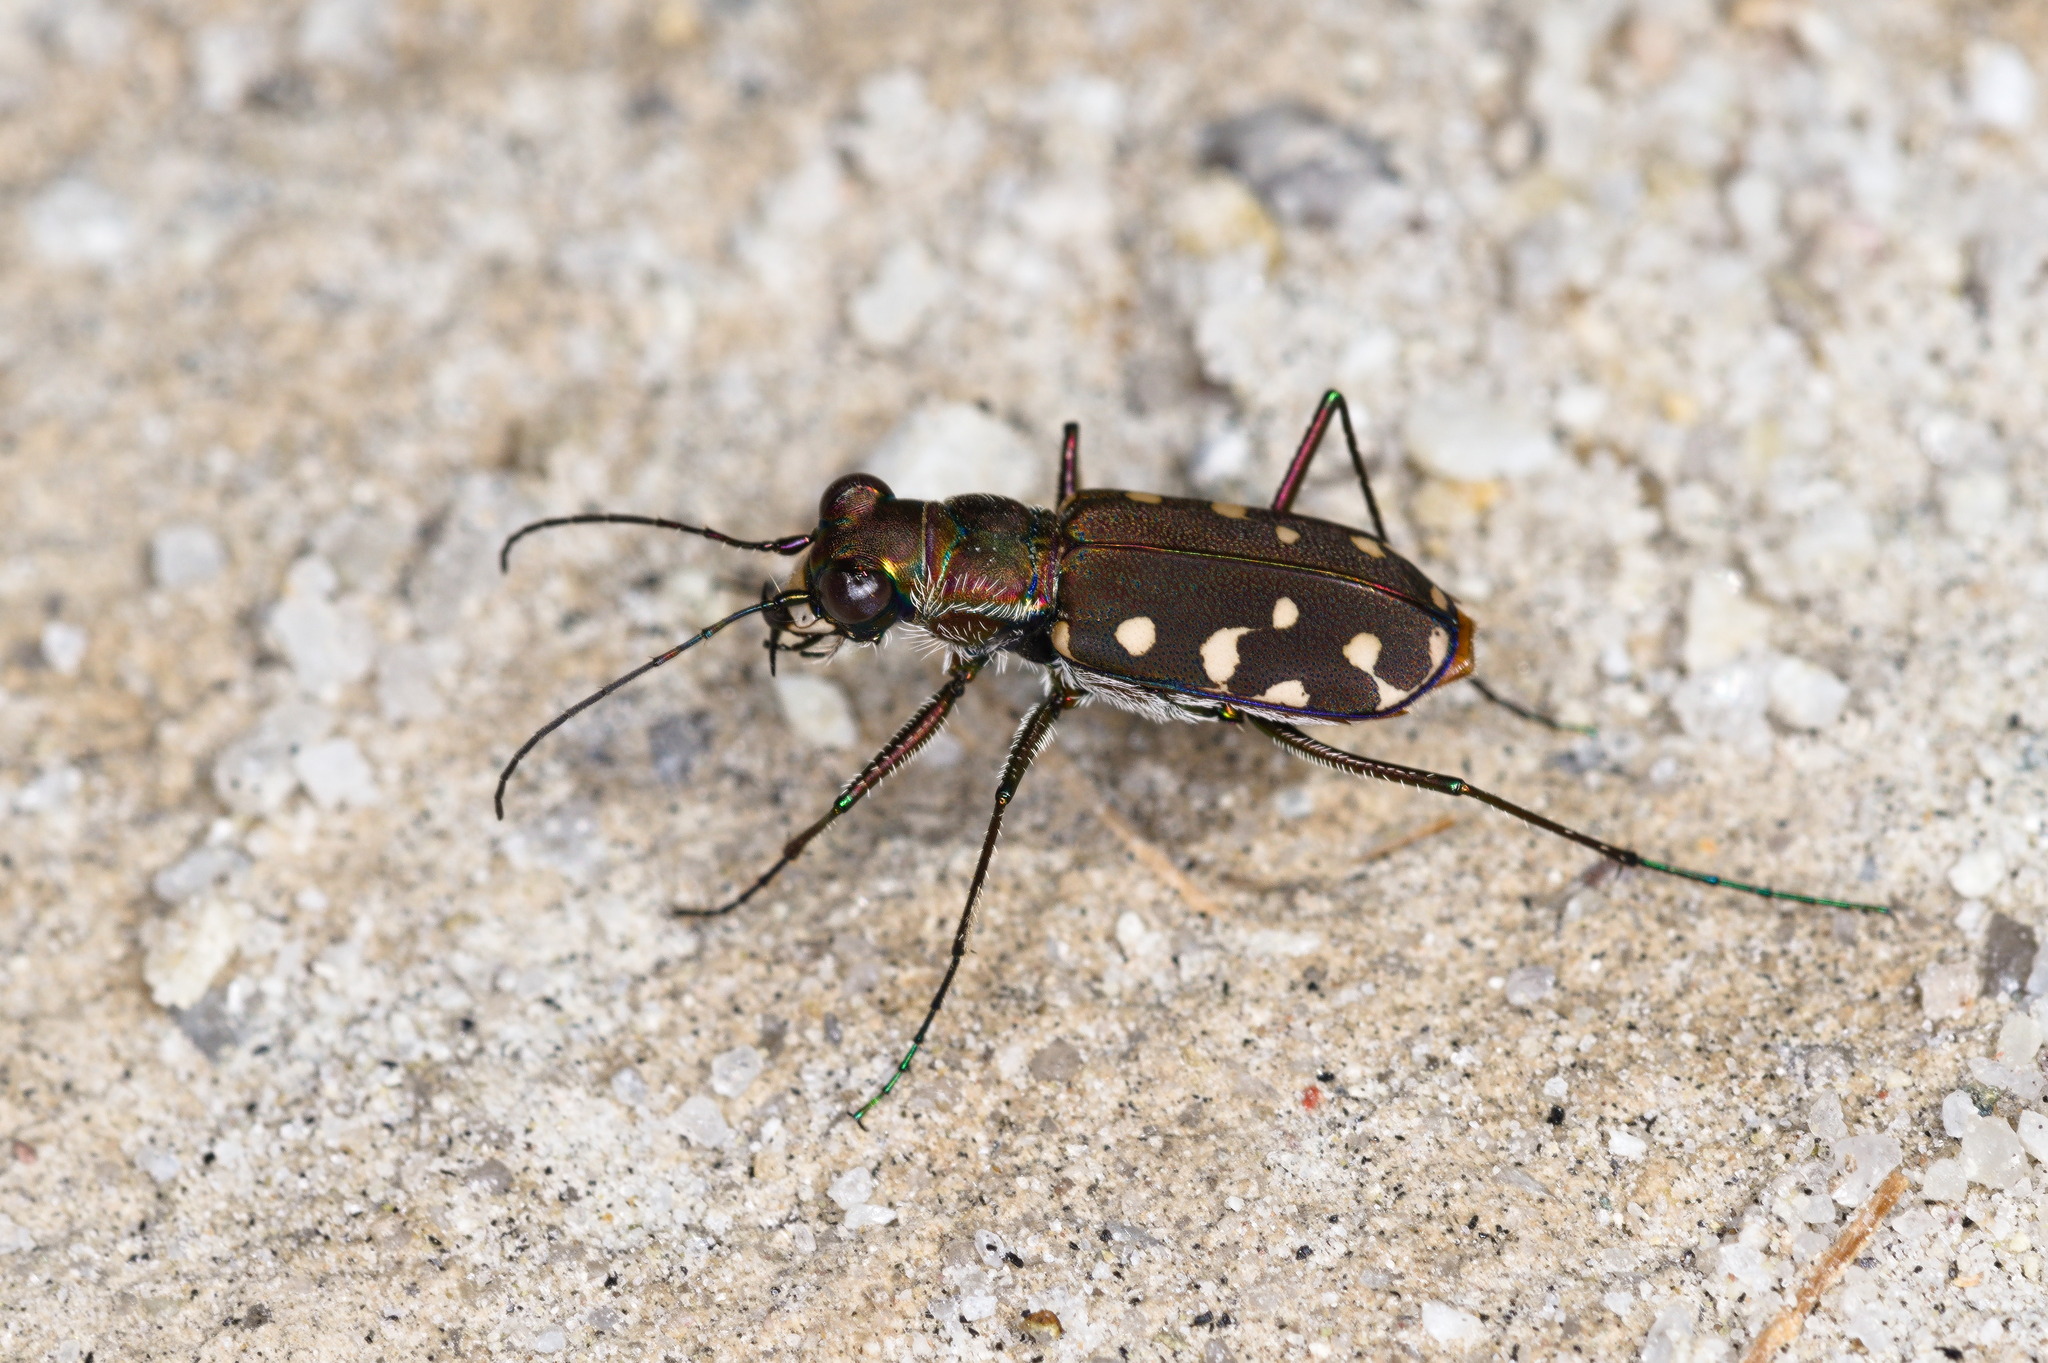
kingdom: Animalia
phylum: Arthropoda
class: Insecta
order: Coleoptera
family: Carabidae
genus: Cicindela
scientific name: Cicindela sedecimpunctata
